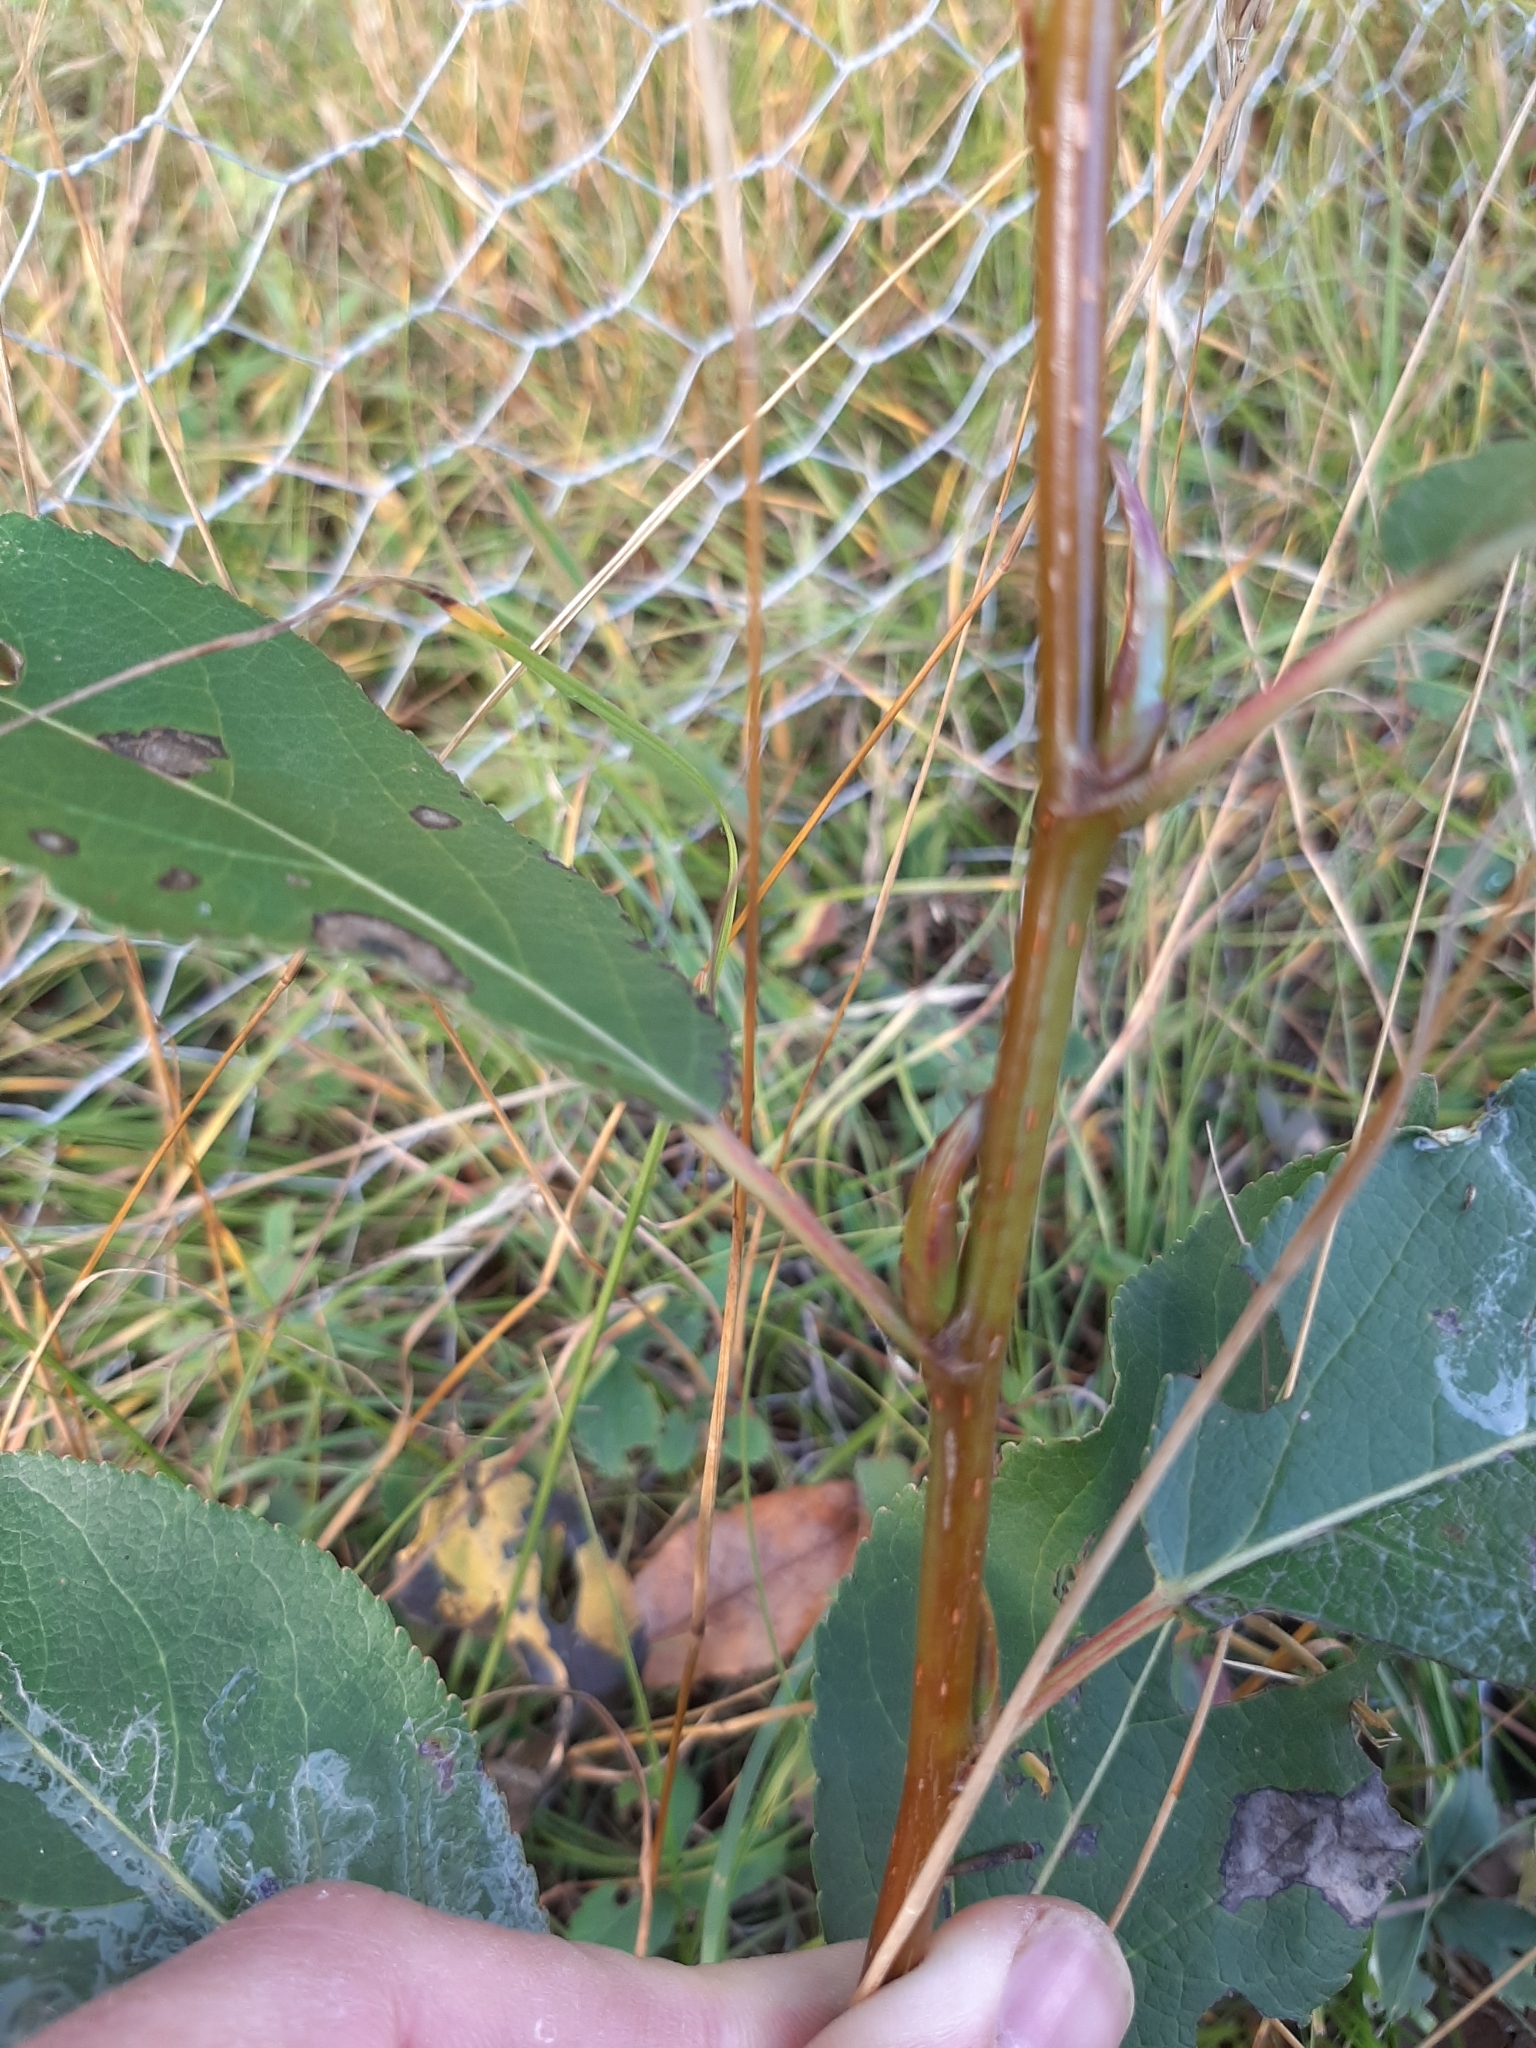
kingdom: Plantae
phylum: Tracheophyta
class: Magnoliopsida
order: Malpighiales
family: Salicaceae
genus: Populus
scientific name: Populus balsamifera
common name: Balsam poplar
